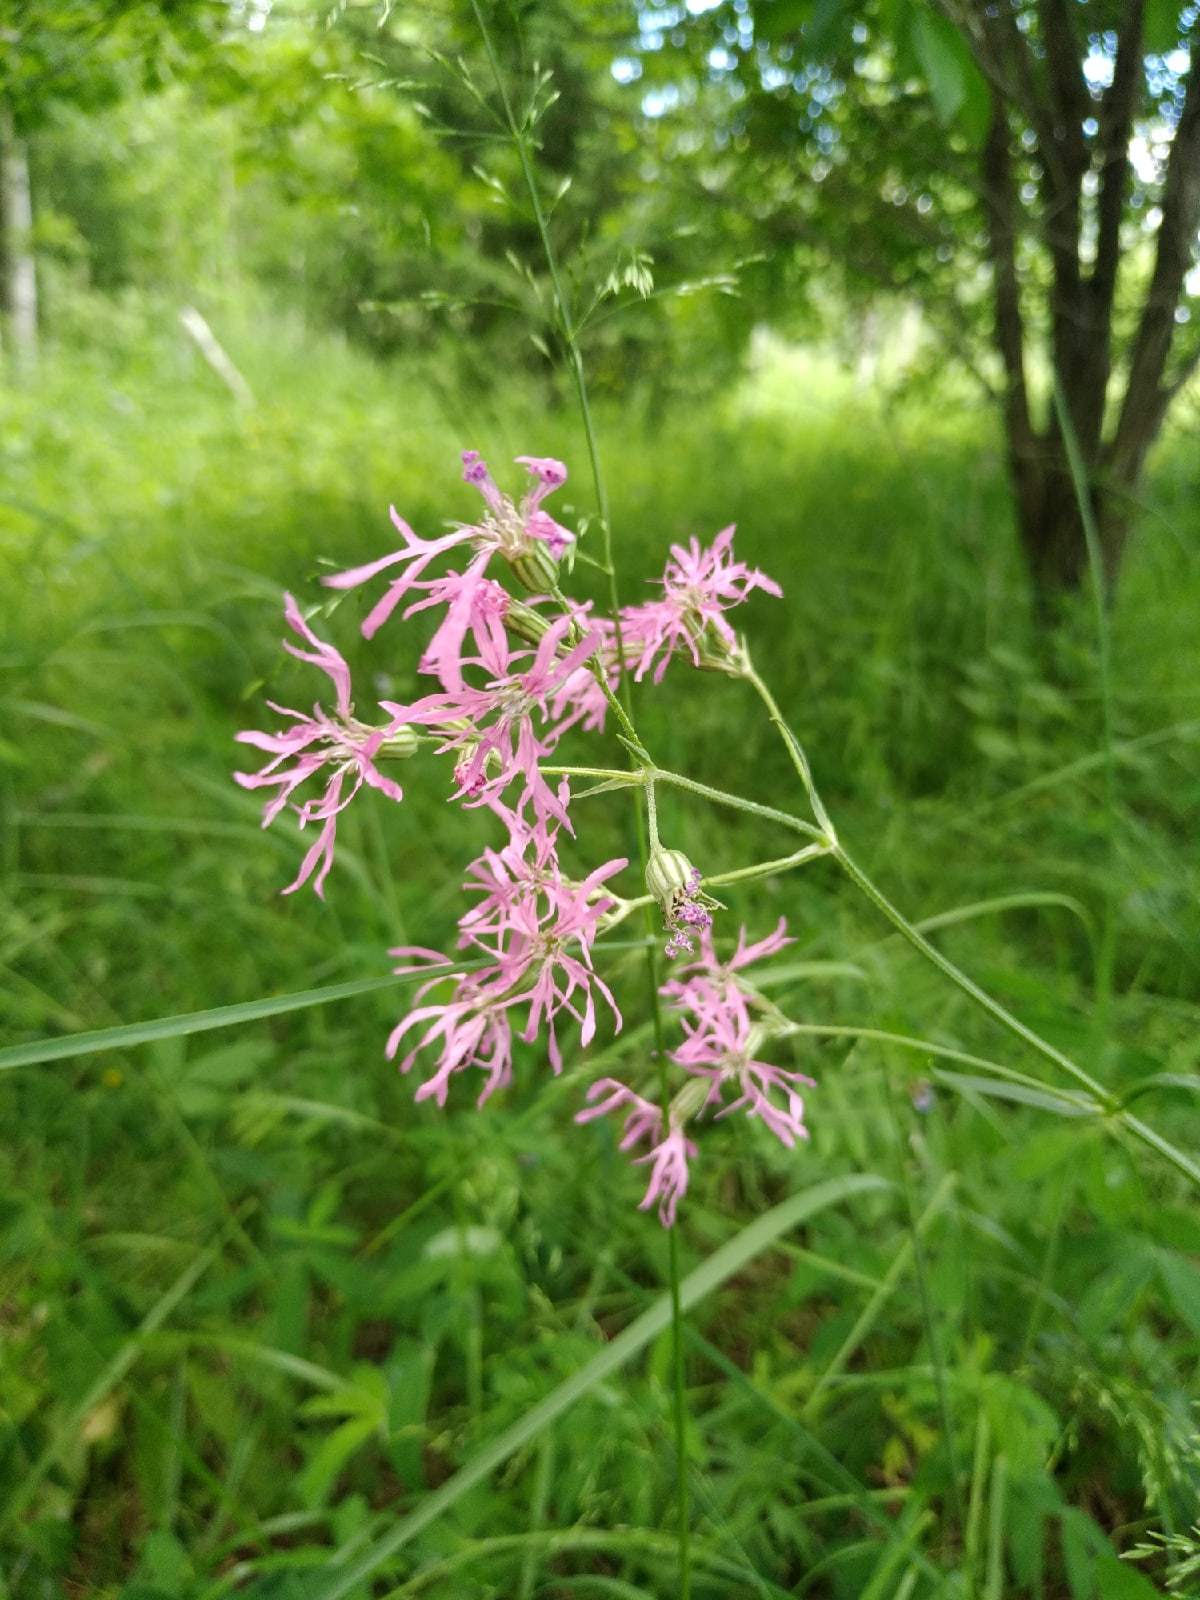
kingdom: Plantae
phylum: Tracheophyta
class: Magnoliopsida
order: Caryophyllales
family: Caryophyllaceae
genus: Silene
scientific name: Silene flos-cuculi
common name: Ragged-robin
